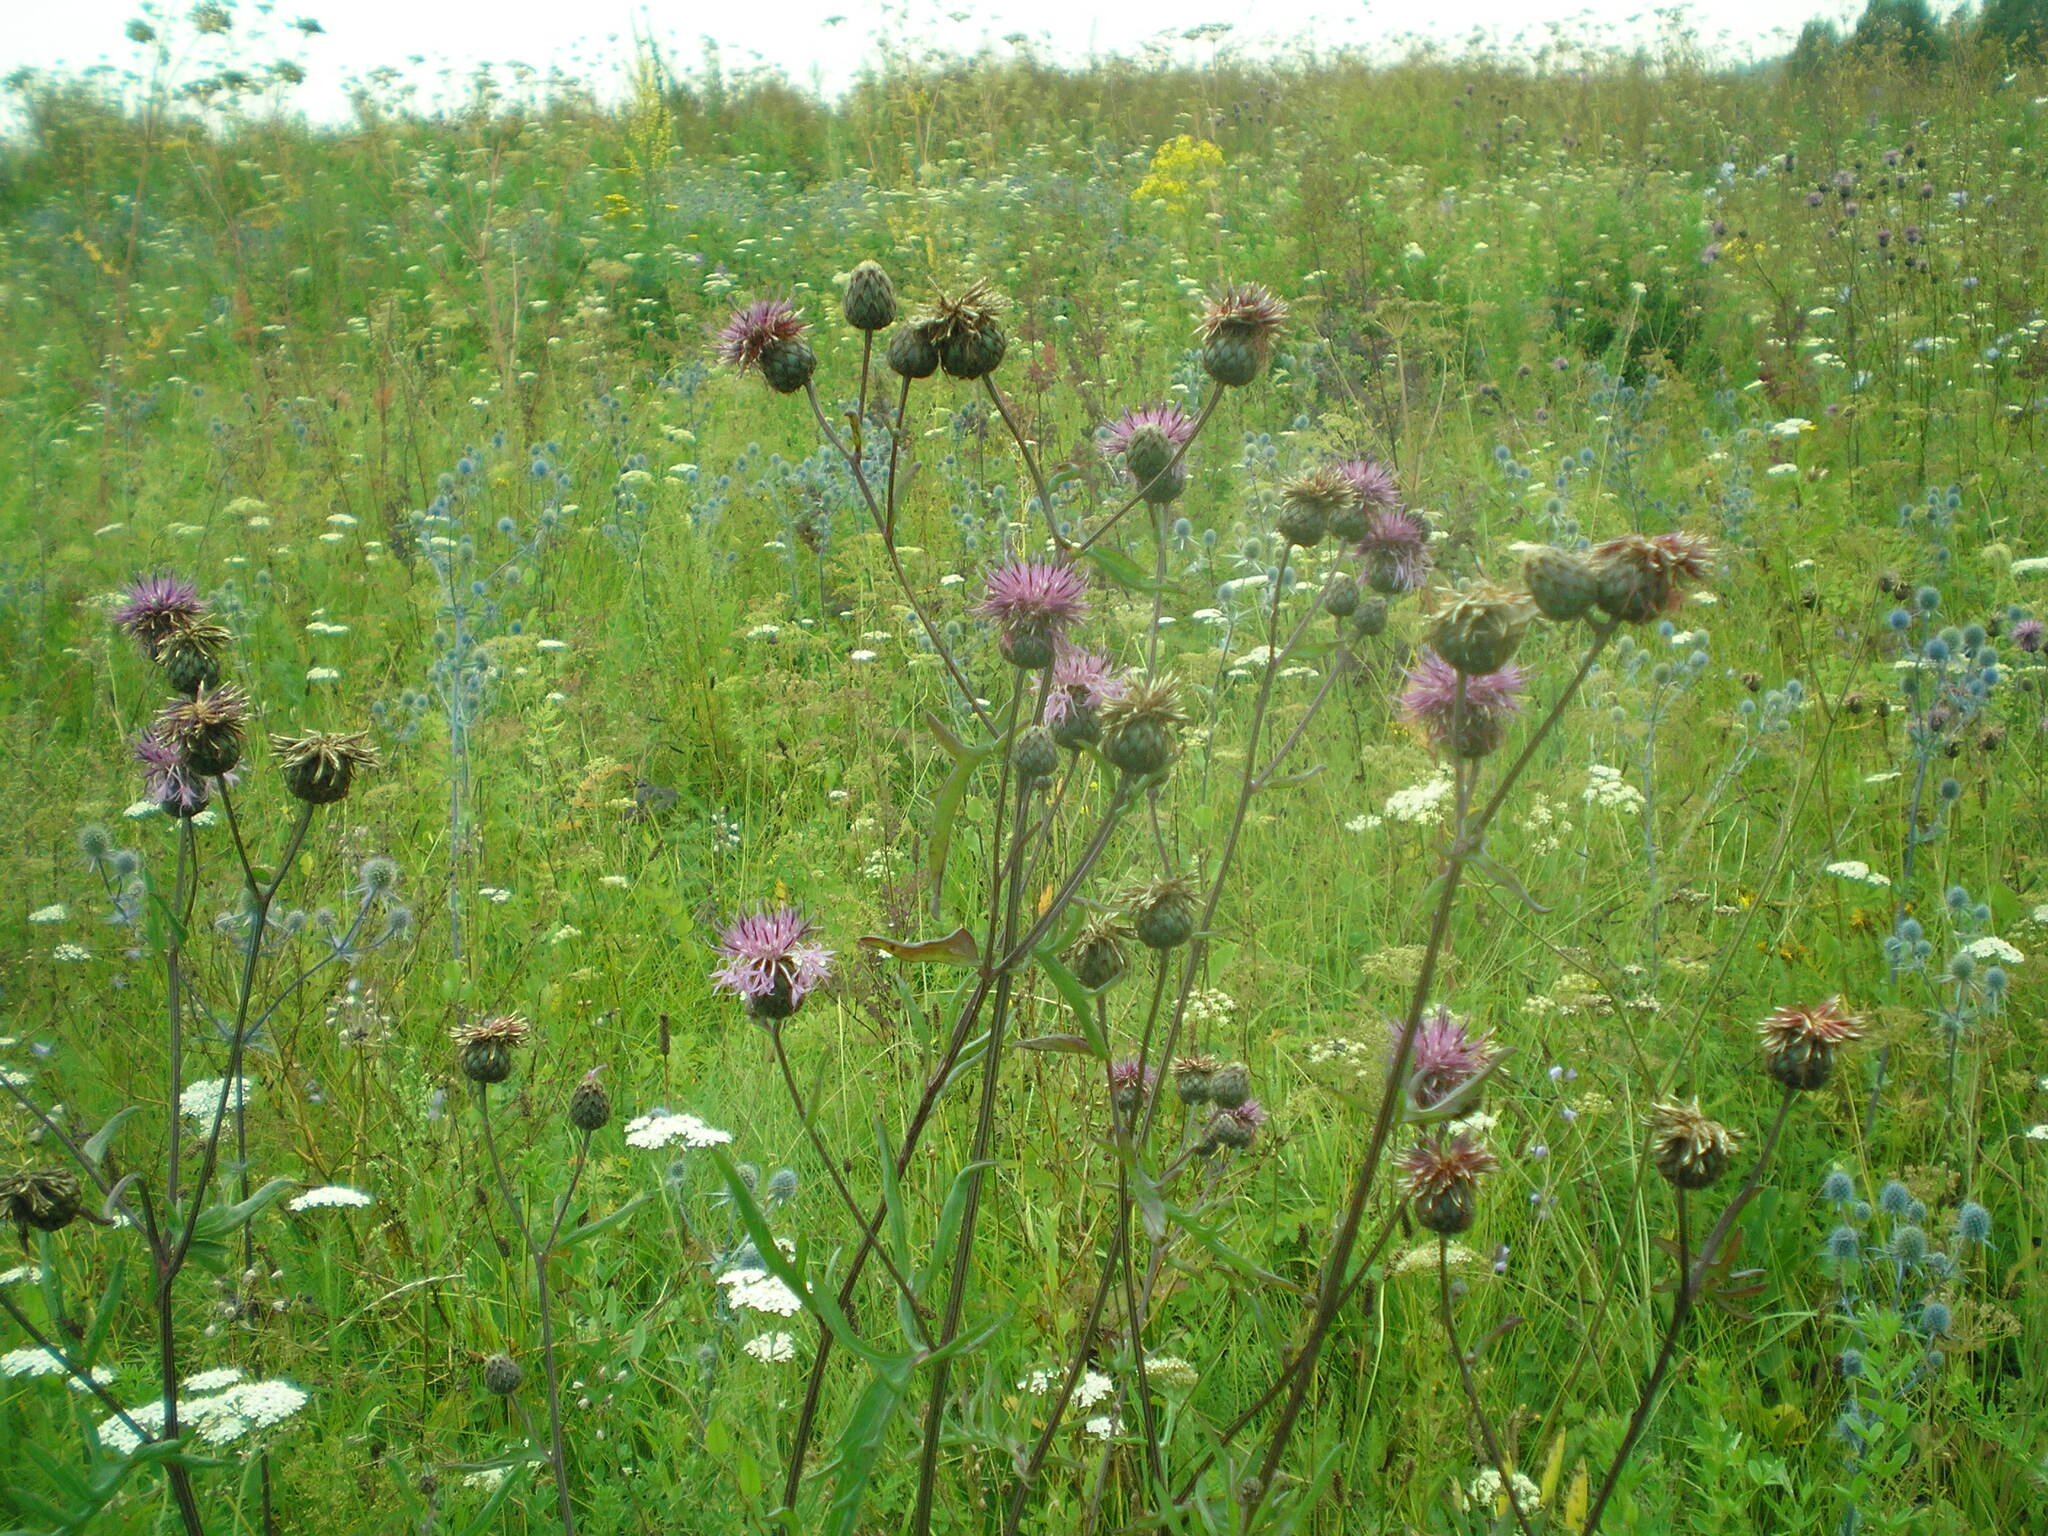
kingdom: Plantae
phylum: Tracheophyta
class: Magnoliopsida
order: Asterales
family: Asteraceae
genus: Centaurea
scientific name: Centaurea scabiosa
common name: Greater knapweed
